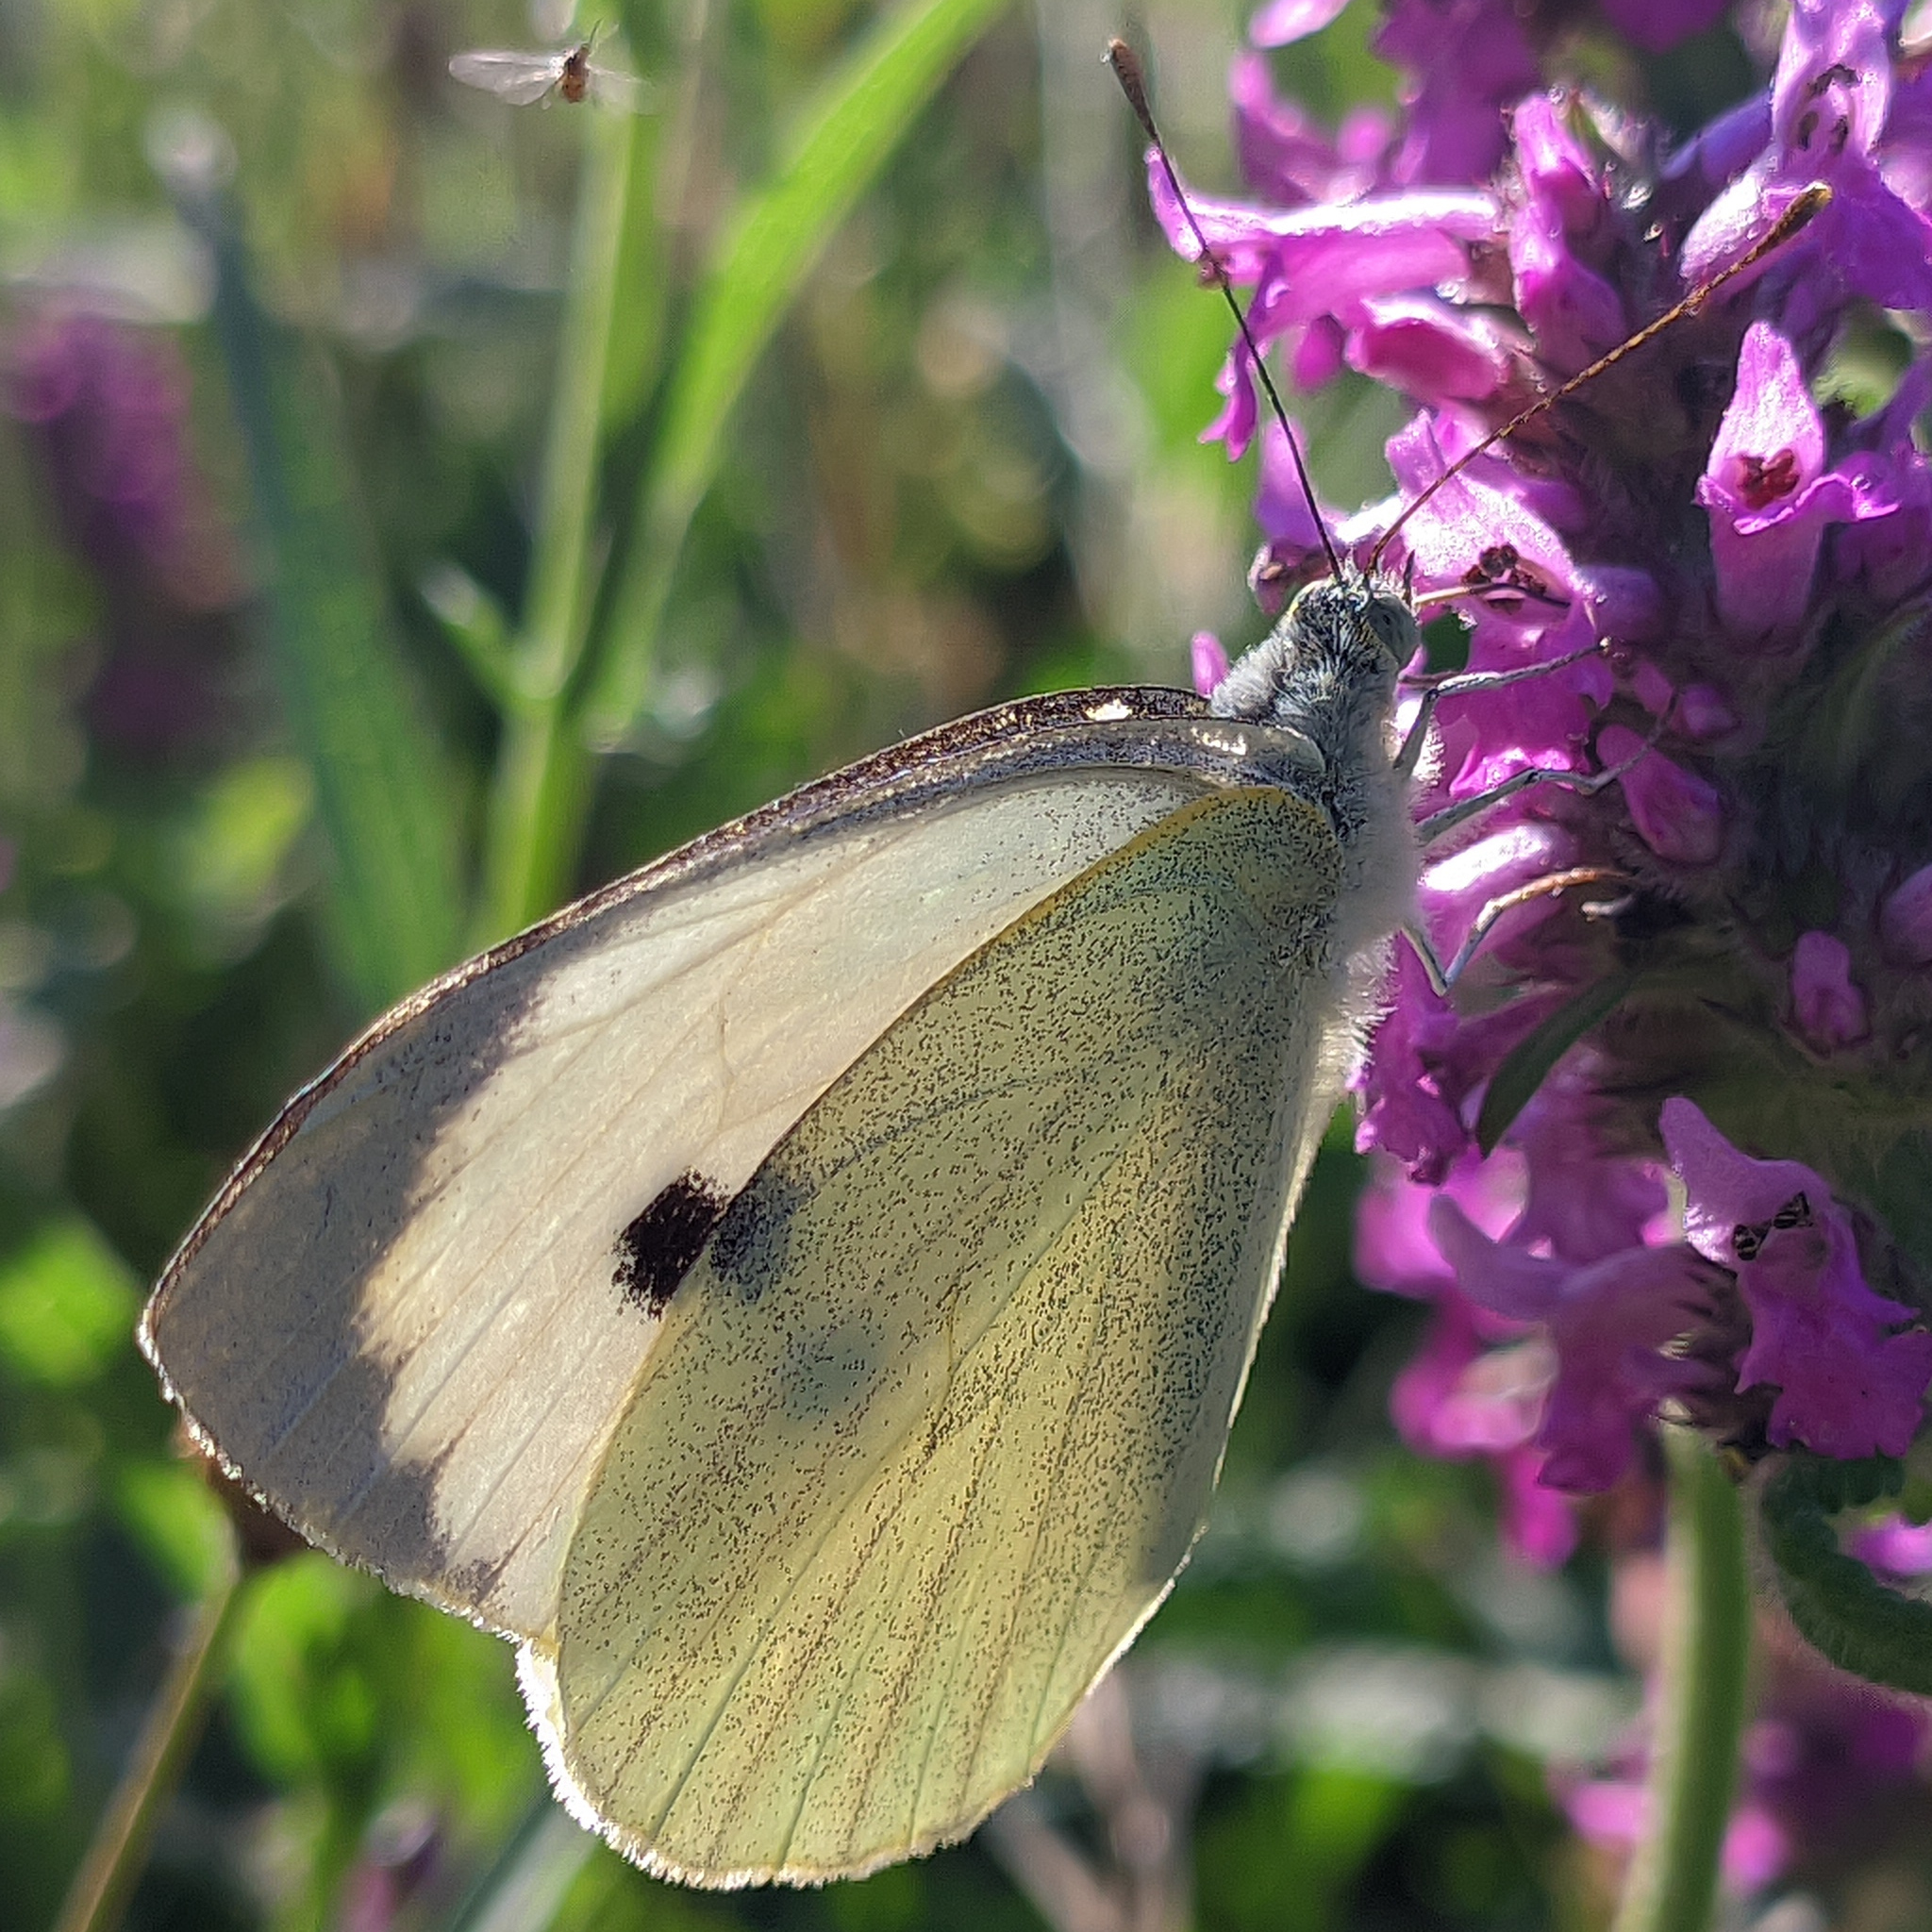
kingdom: Animalia
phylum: Arthropoda
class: Insecta
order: Lepidoptera
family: Pieridae
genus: Pieris
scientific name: Pieris brassicae
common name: Large white
